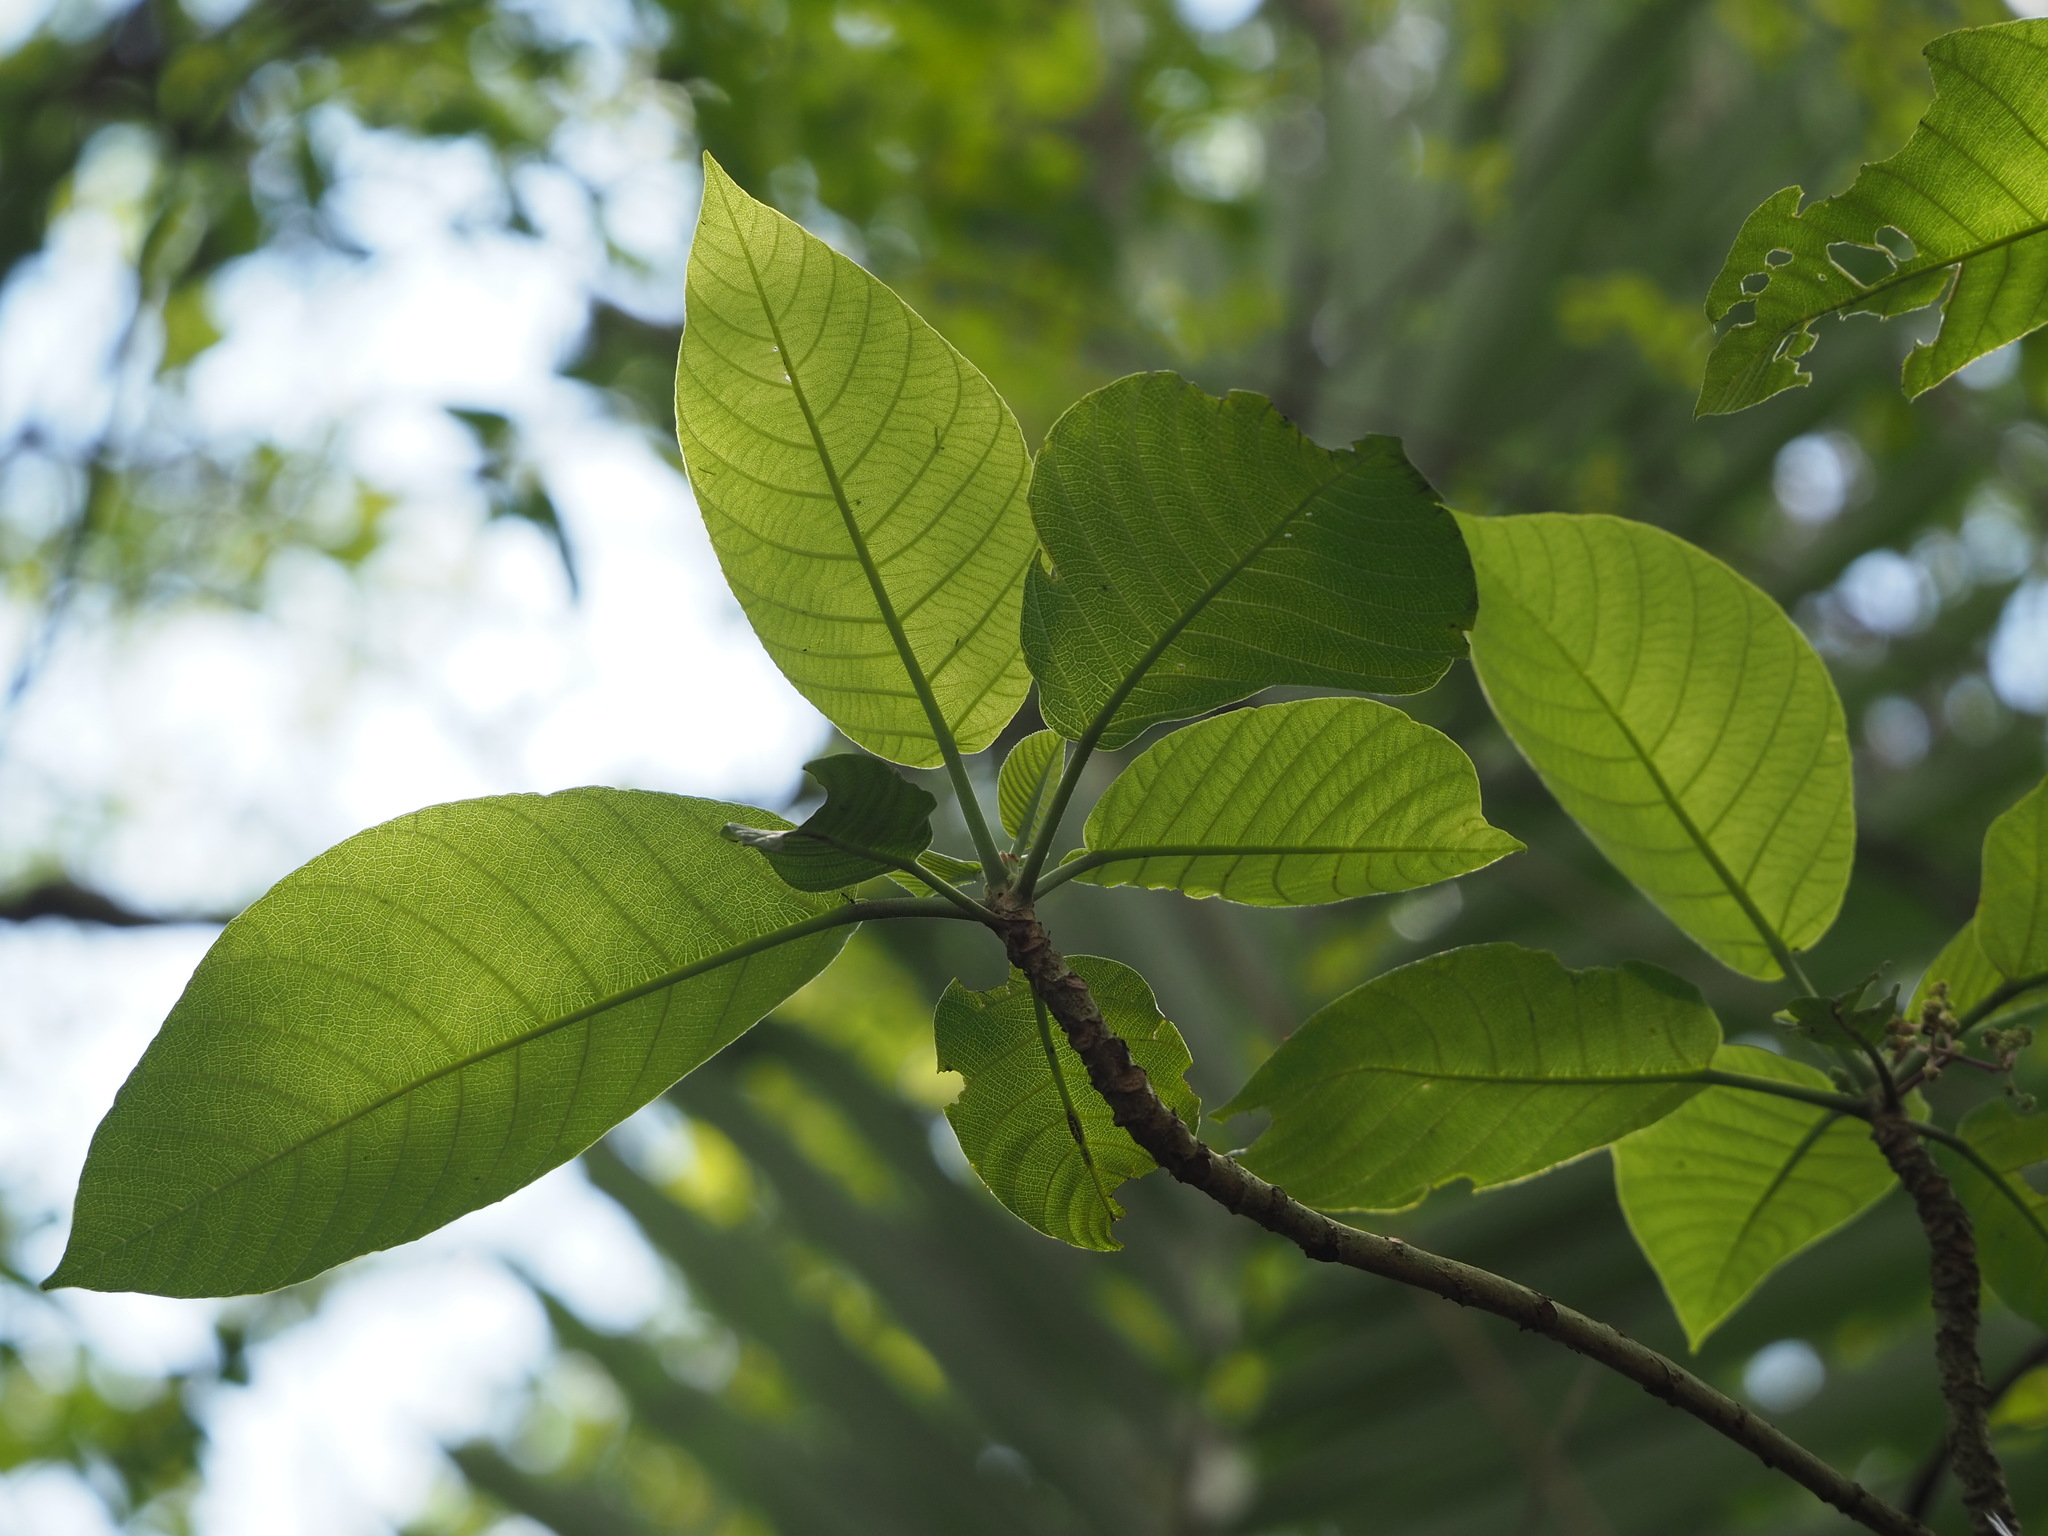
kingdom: Plantae
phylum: Tracheophyta
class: Magnoliopsida
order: Rosales
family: Urticaceae
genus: Dendrocnide
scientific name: Dendrocnide meyeniana
